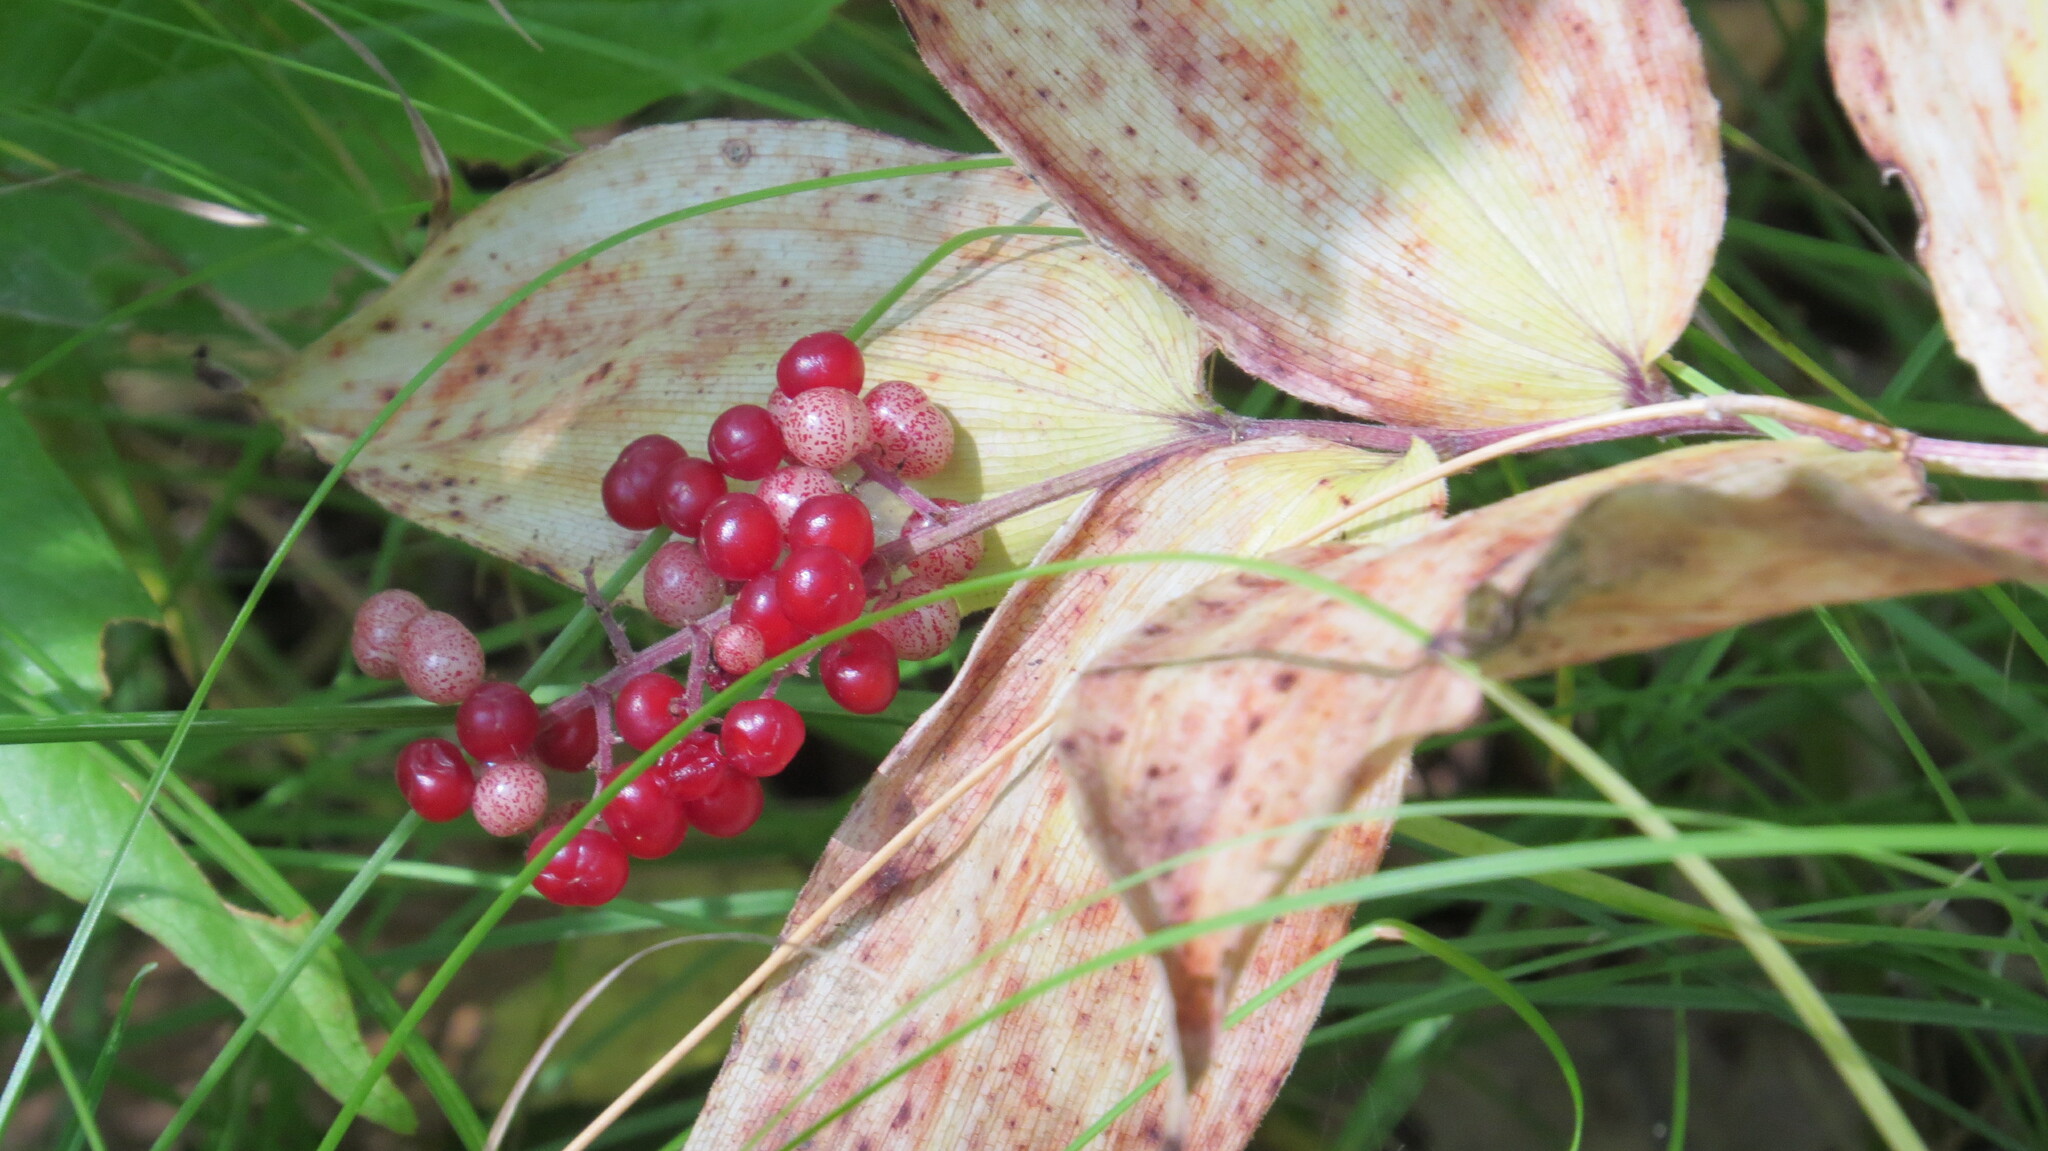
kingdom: Plantae
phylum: Tracheophyta
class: Liliopsida
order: Asparagales
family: Asparagaceae
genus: Maianthemum
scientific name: Maianthemum racemosum
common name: False spikenard
